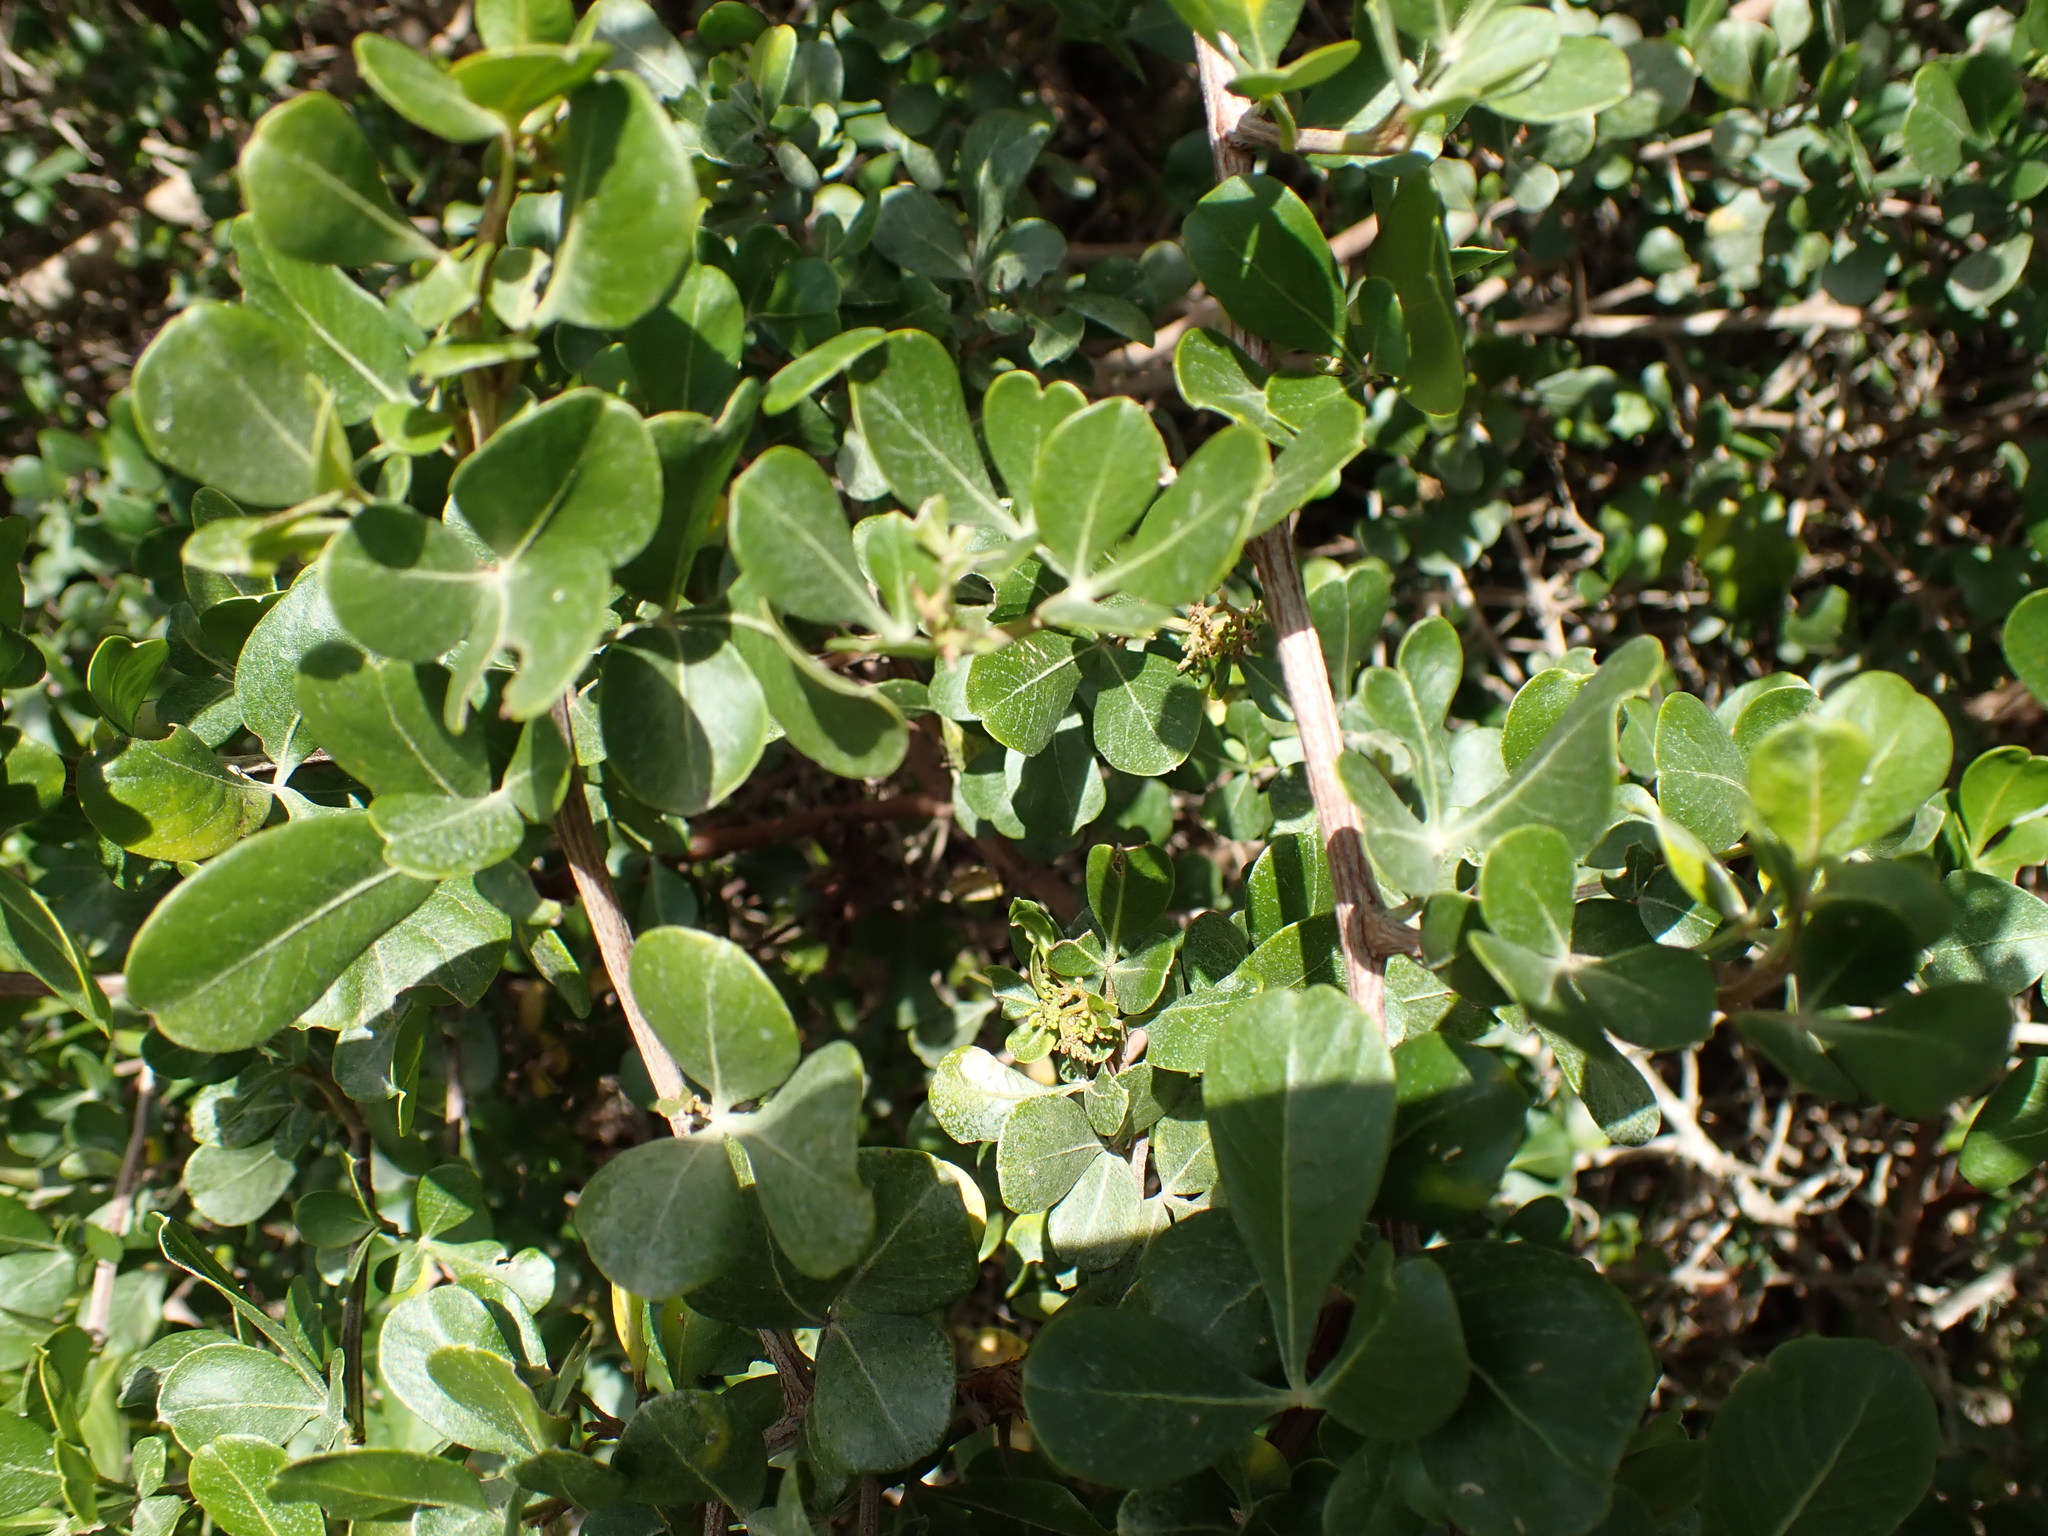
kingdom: Plantae
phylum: Tracheophyta
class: Magnoliopsida
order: Sapindales
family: Anacardiaceae
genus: Searsia
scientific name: Searsia glauca
